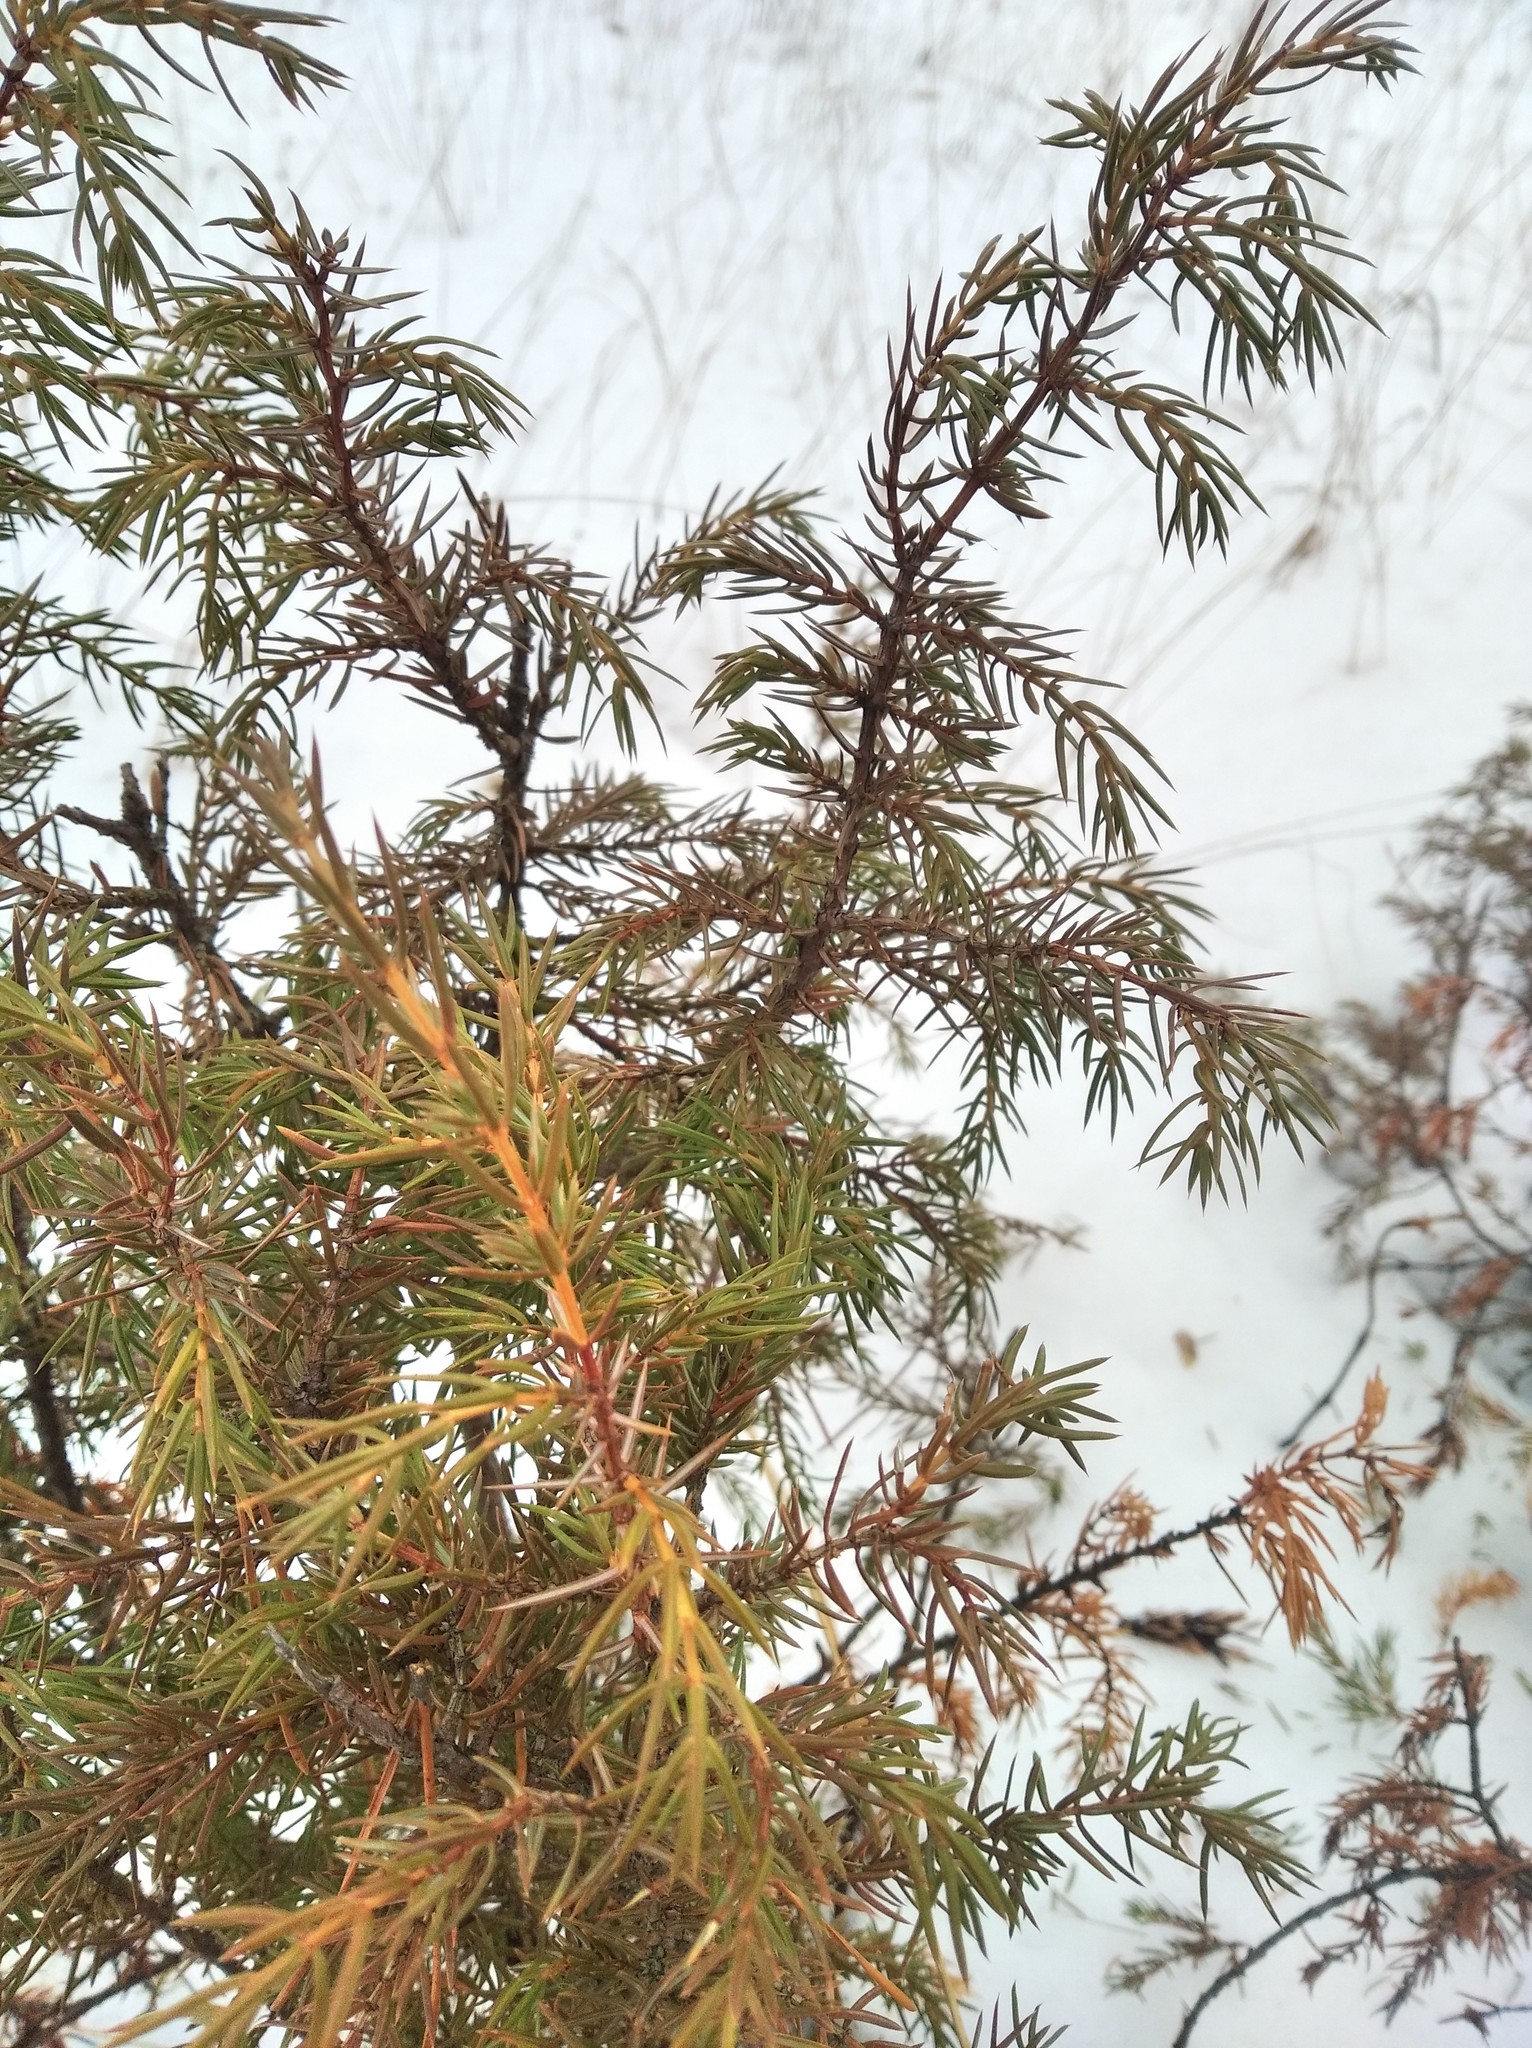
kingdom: Plantae
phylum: Tracheophyta
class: Pinopsida
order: Pinales
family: Cupressaceae
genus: Juniperus
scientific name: Juniperus communis
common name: Common juniper
